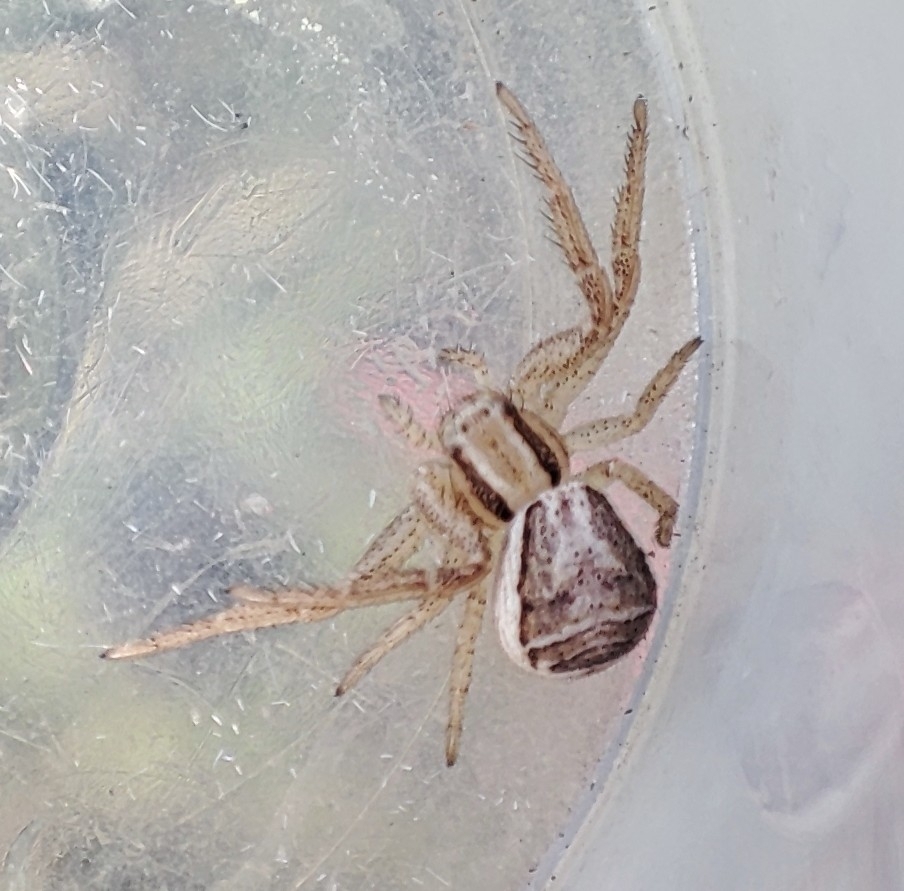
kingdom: Animalia
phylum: Arthropoda
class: Arachnida
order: Araneae
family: Thomisidae
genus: Xysticus
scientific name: Xysticus ulmi
